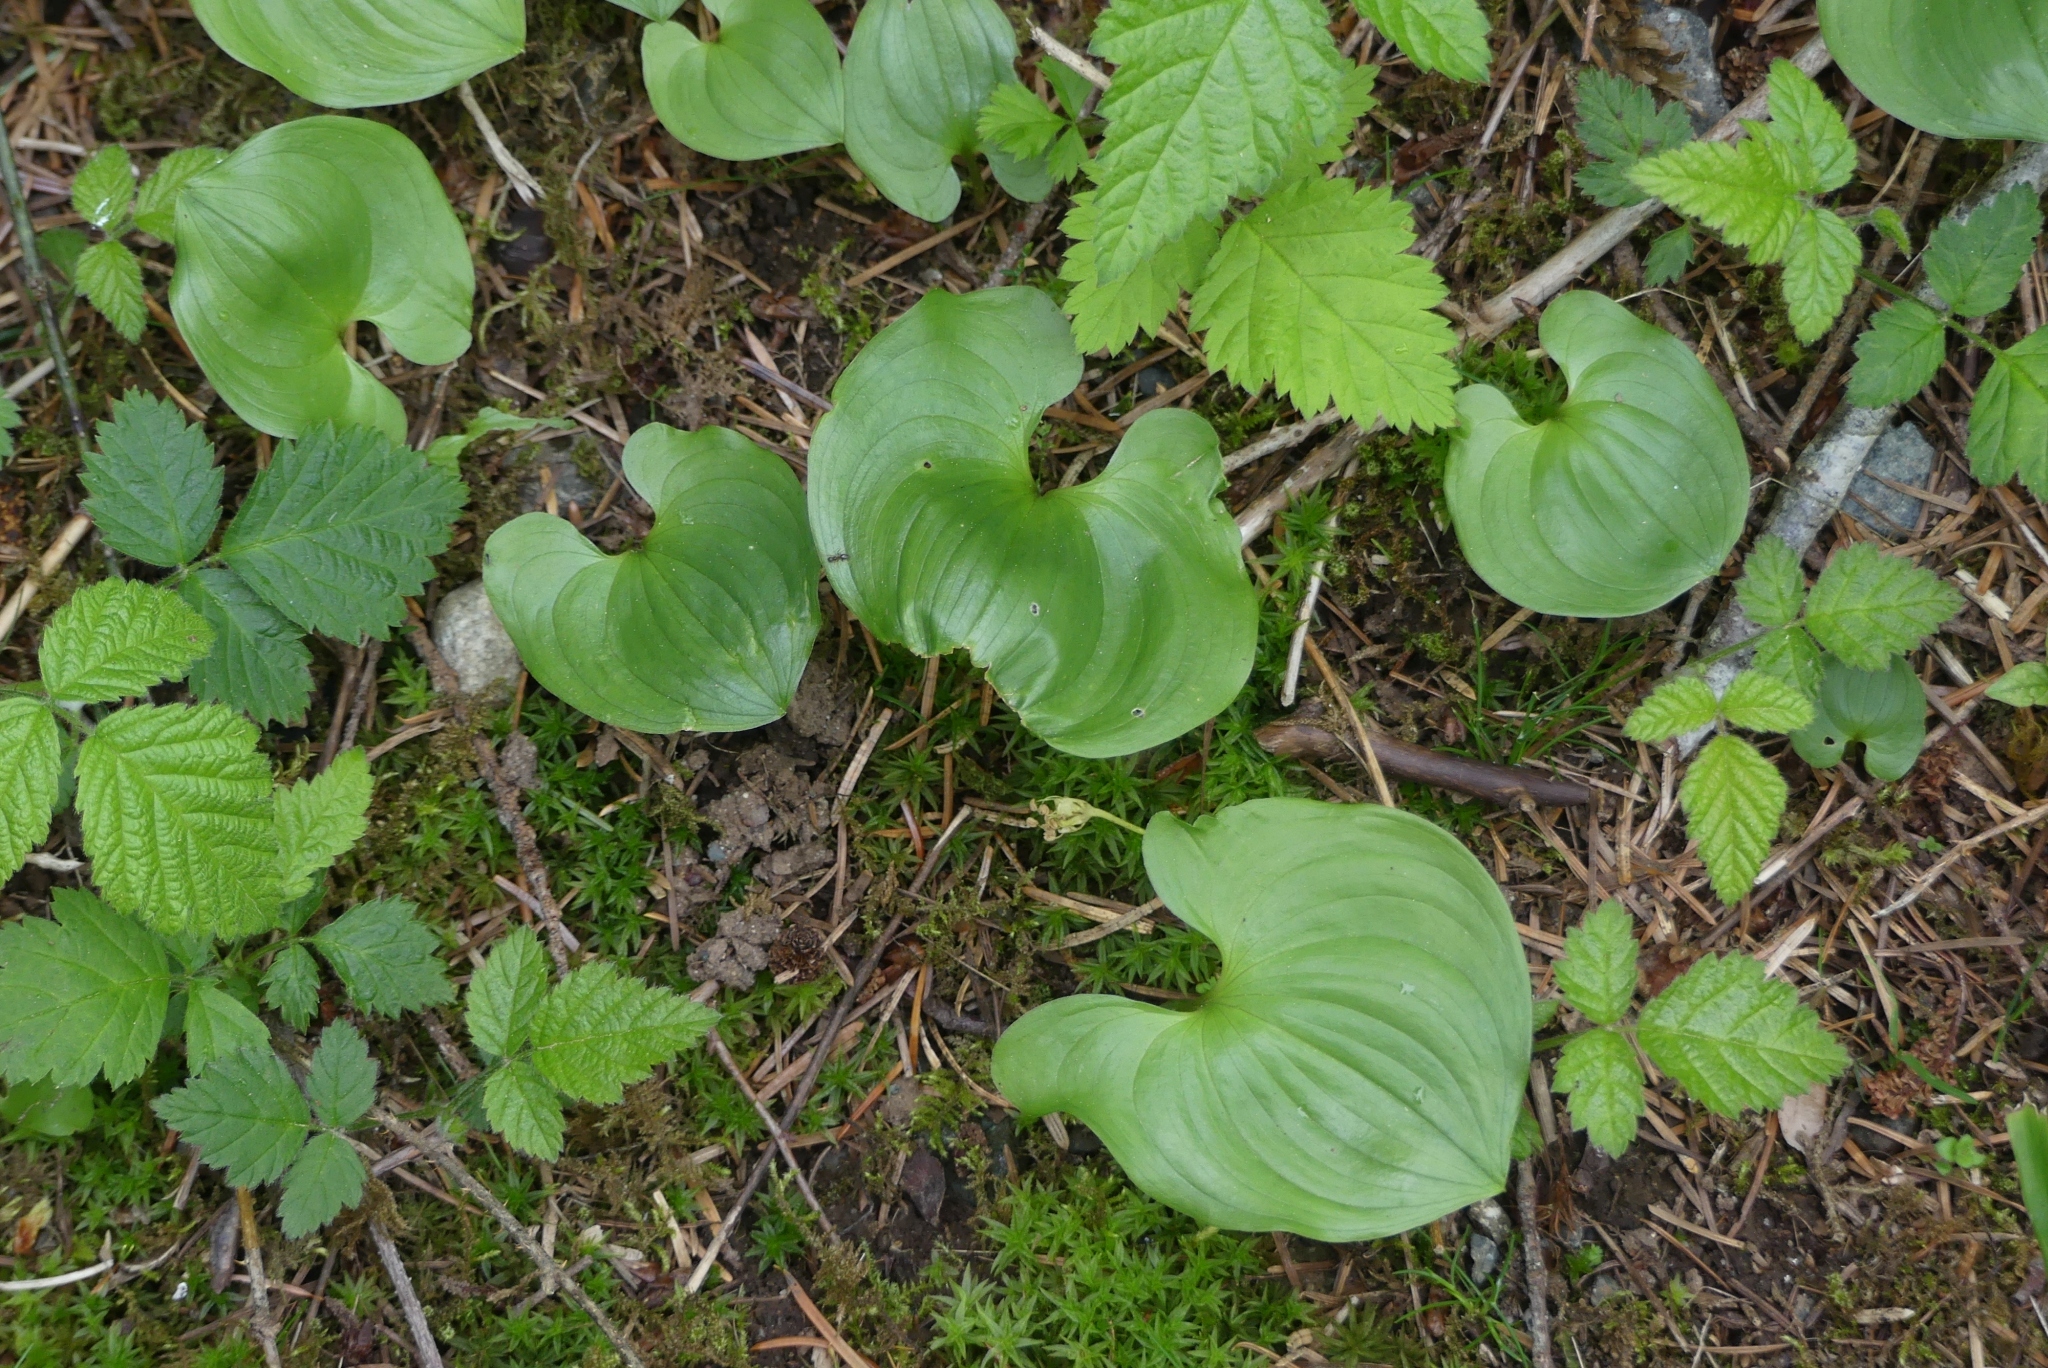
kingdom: Plantae
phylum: Tracheophyta
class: Liliopsida
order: Asparagales
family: Asparagaceae
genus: Maianthemum
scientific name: Maianthemum dilatatum
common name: False lily-of-the-valley
